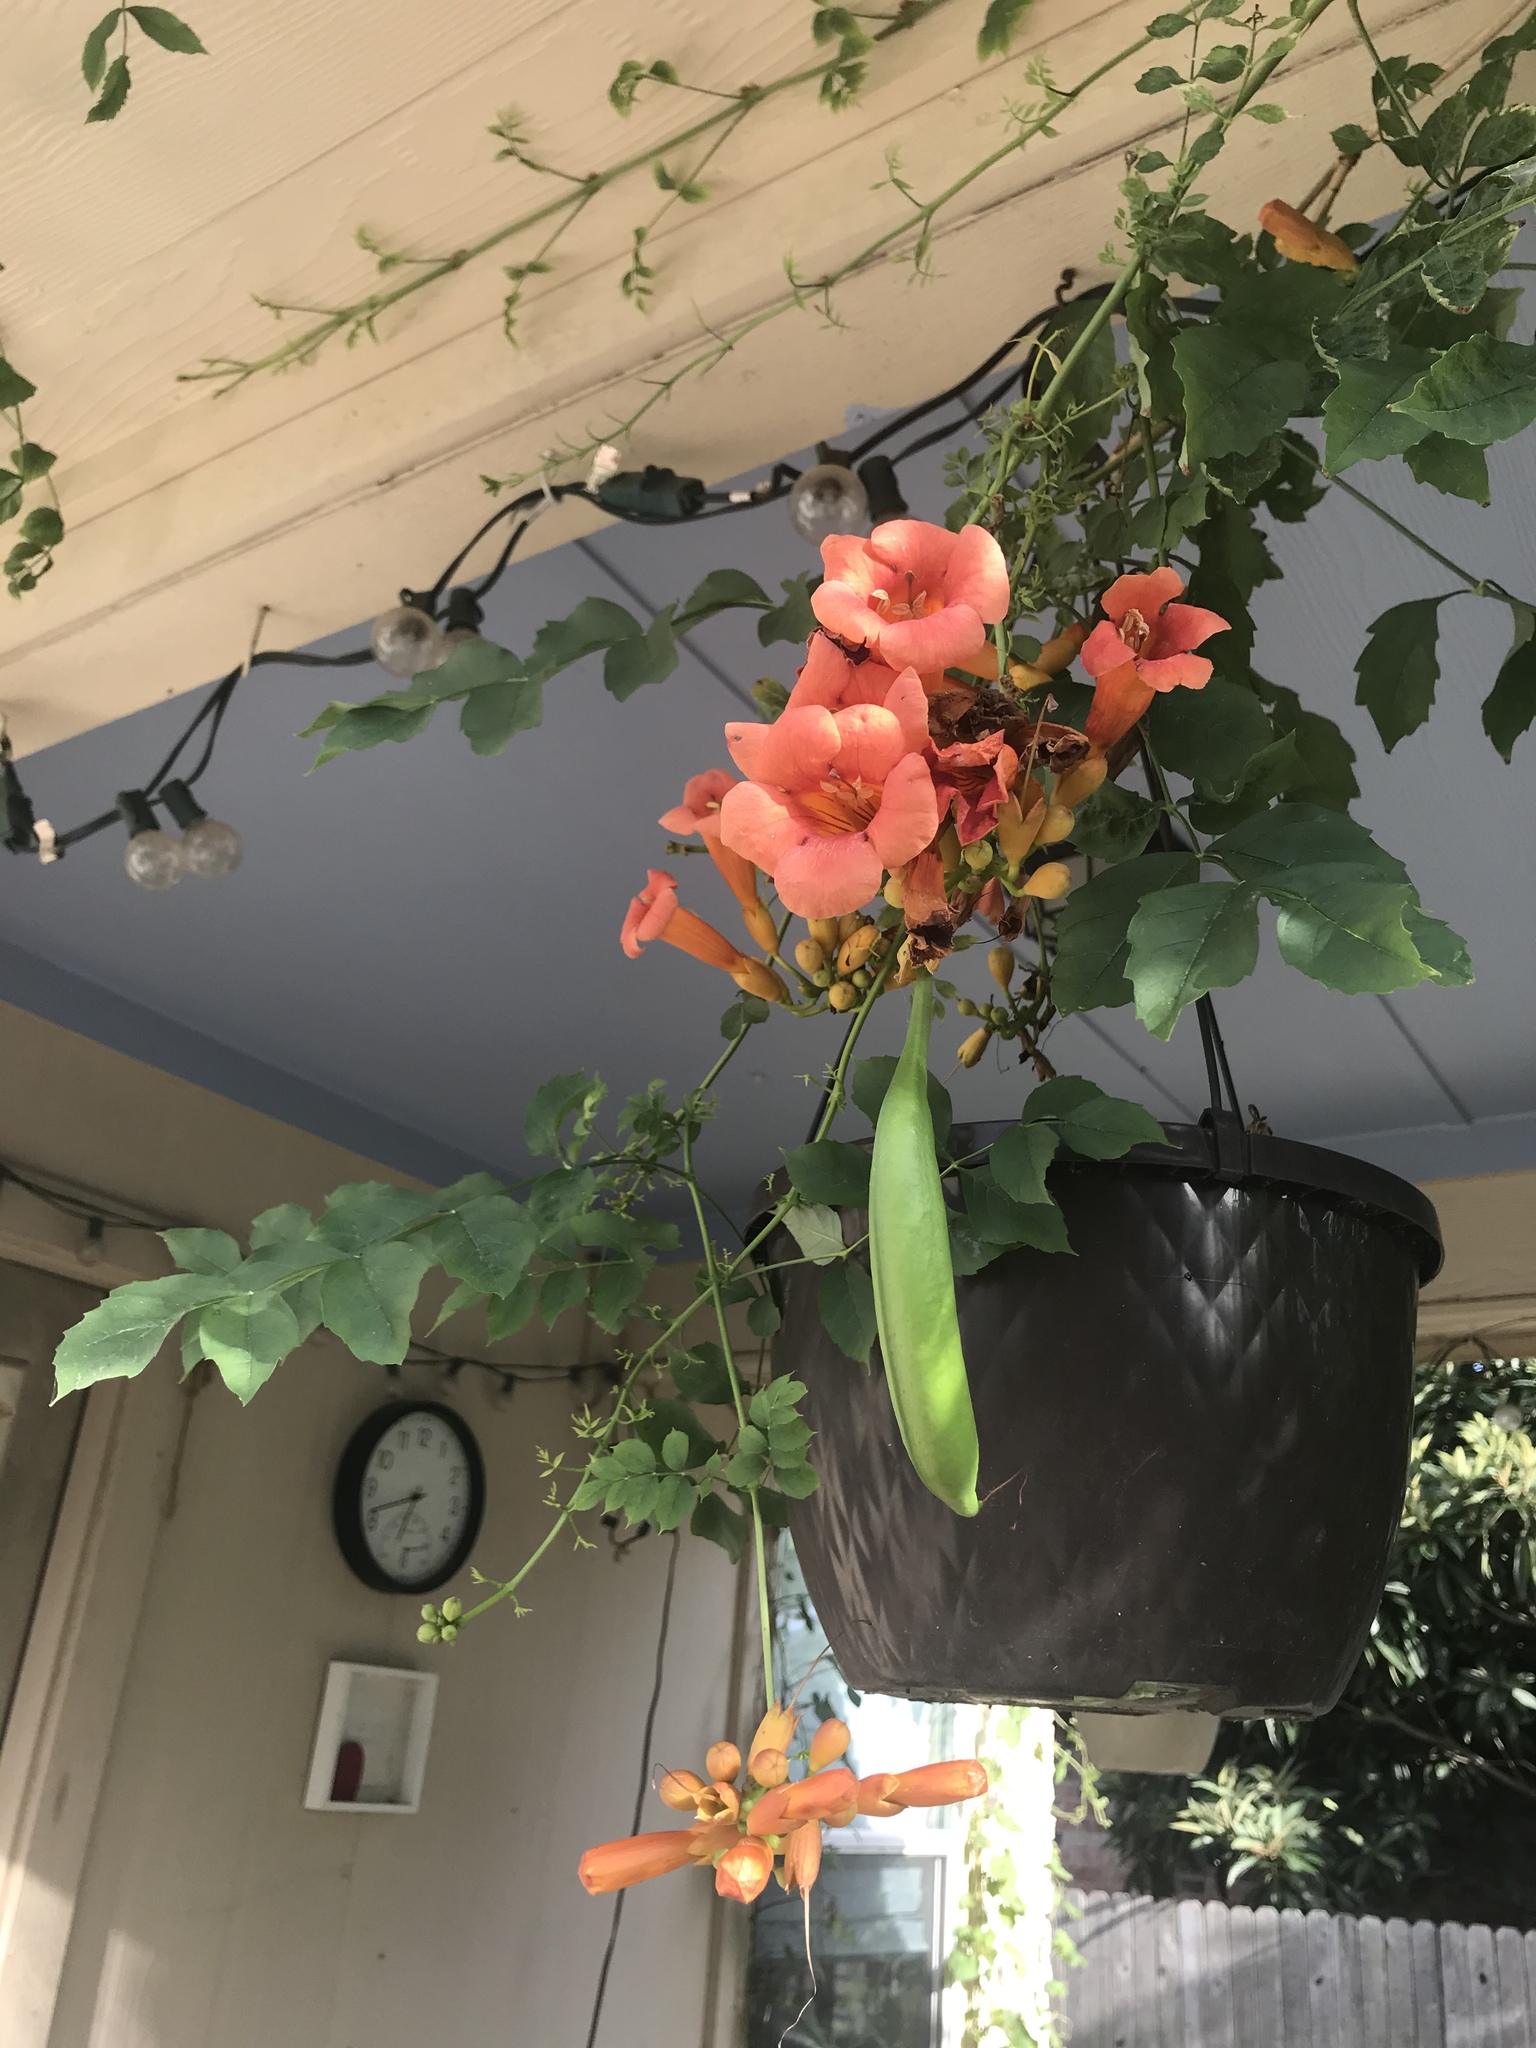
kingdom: Plantae
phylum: Tracheophyta
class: Magnoliopsida
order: Lamiales
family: Bignoniaceae
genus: Campsis
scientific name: Campsis radicans
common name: Trumpet-creeper
